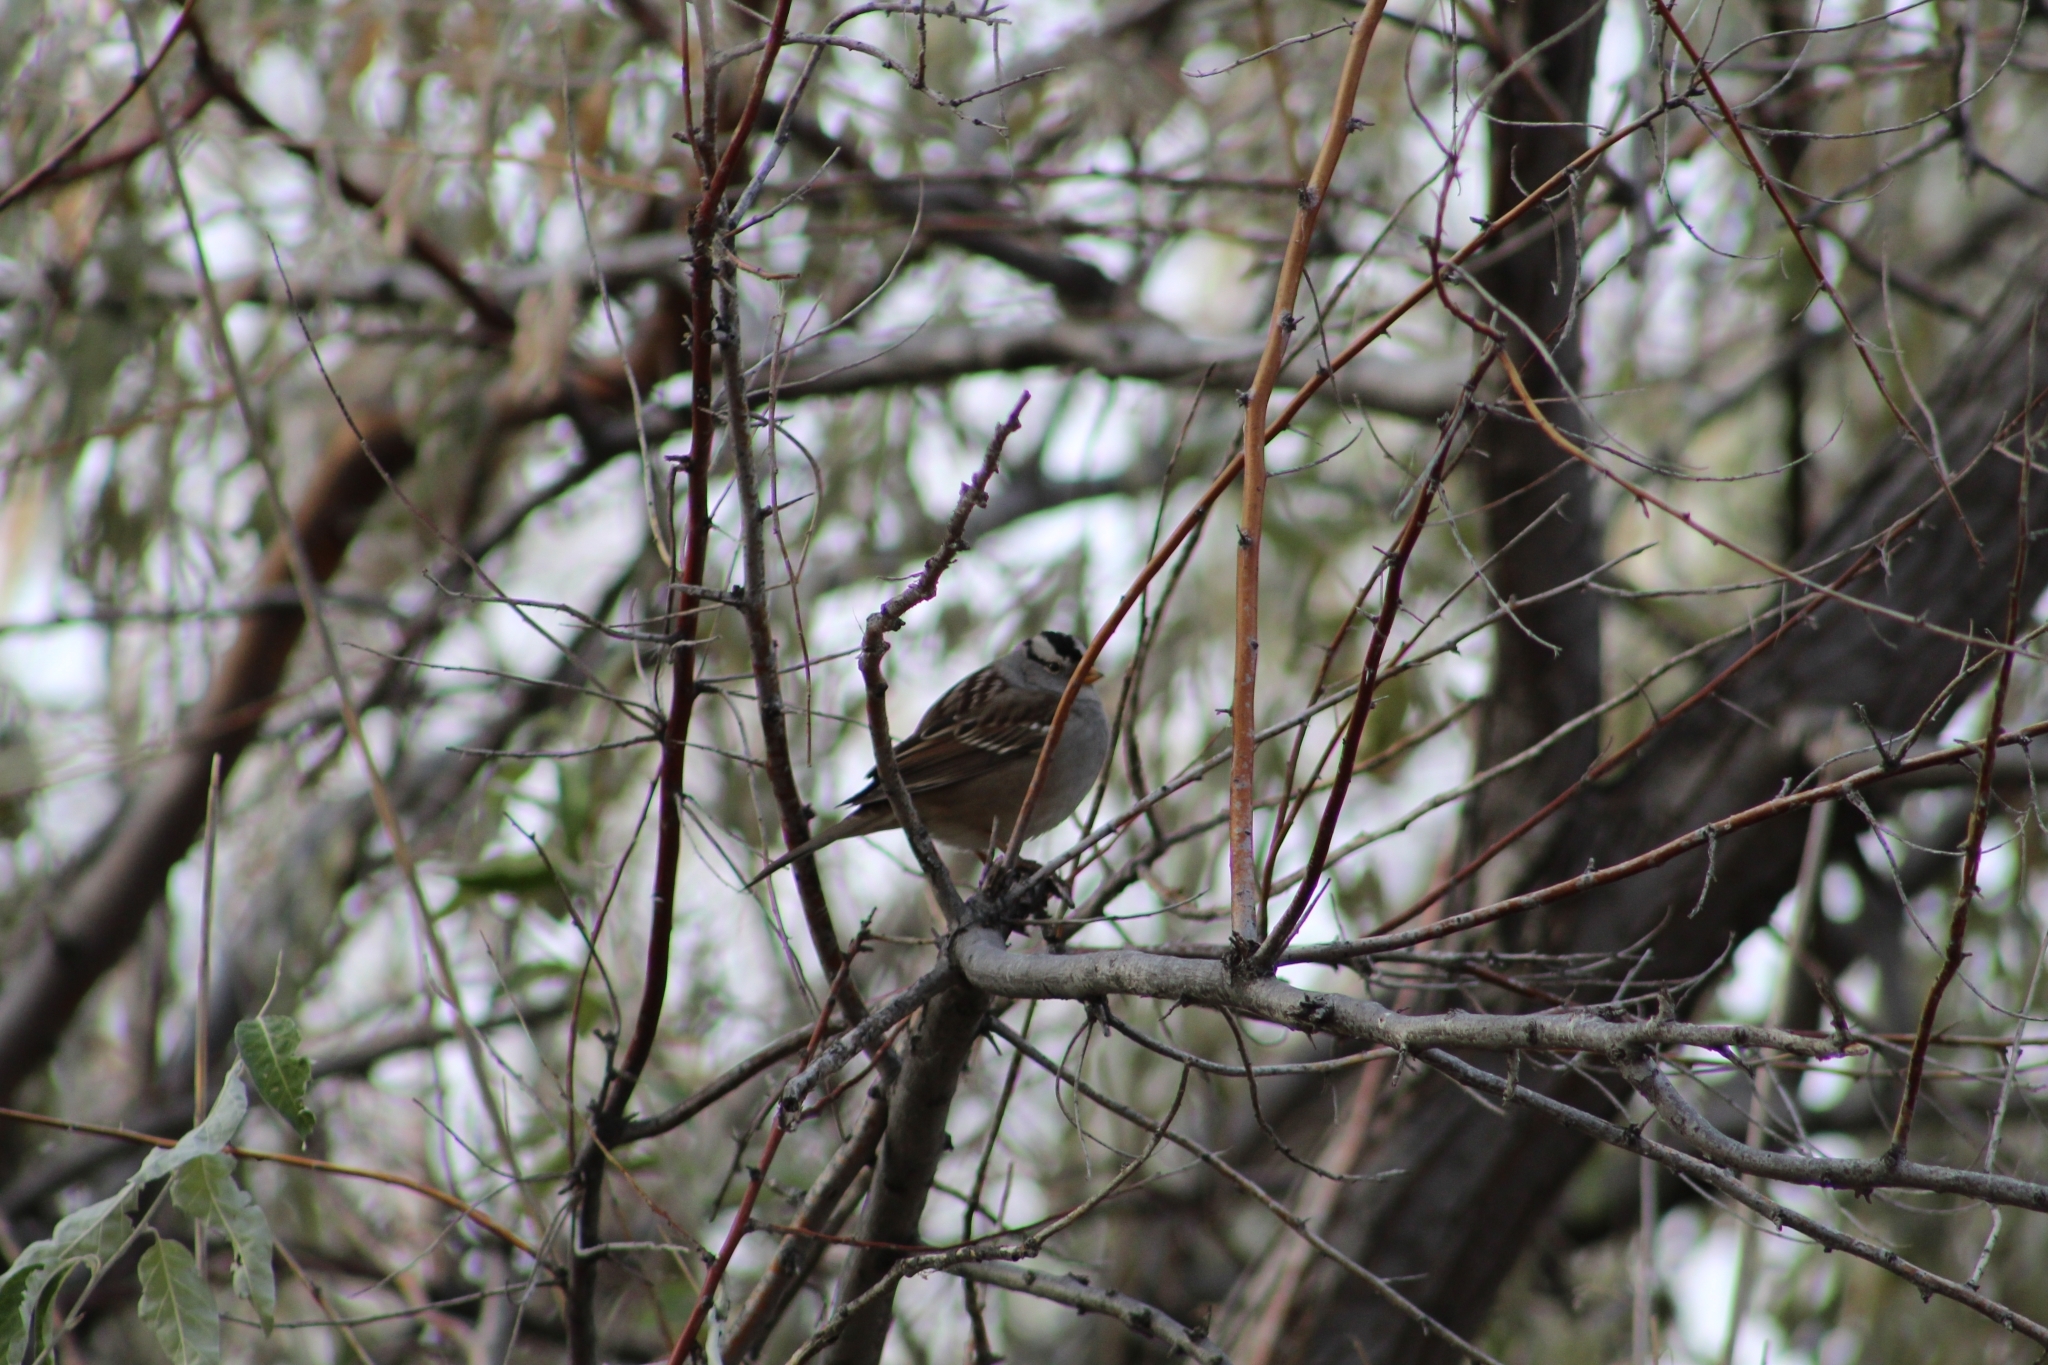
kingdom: Animalia
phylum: Chordata
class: Aves
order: Passeriformes
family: Passerellidae
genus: Zonotrichia
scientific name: Zonotrichia leucophrys
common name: White-crowned sparrow
